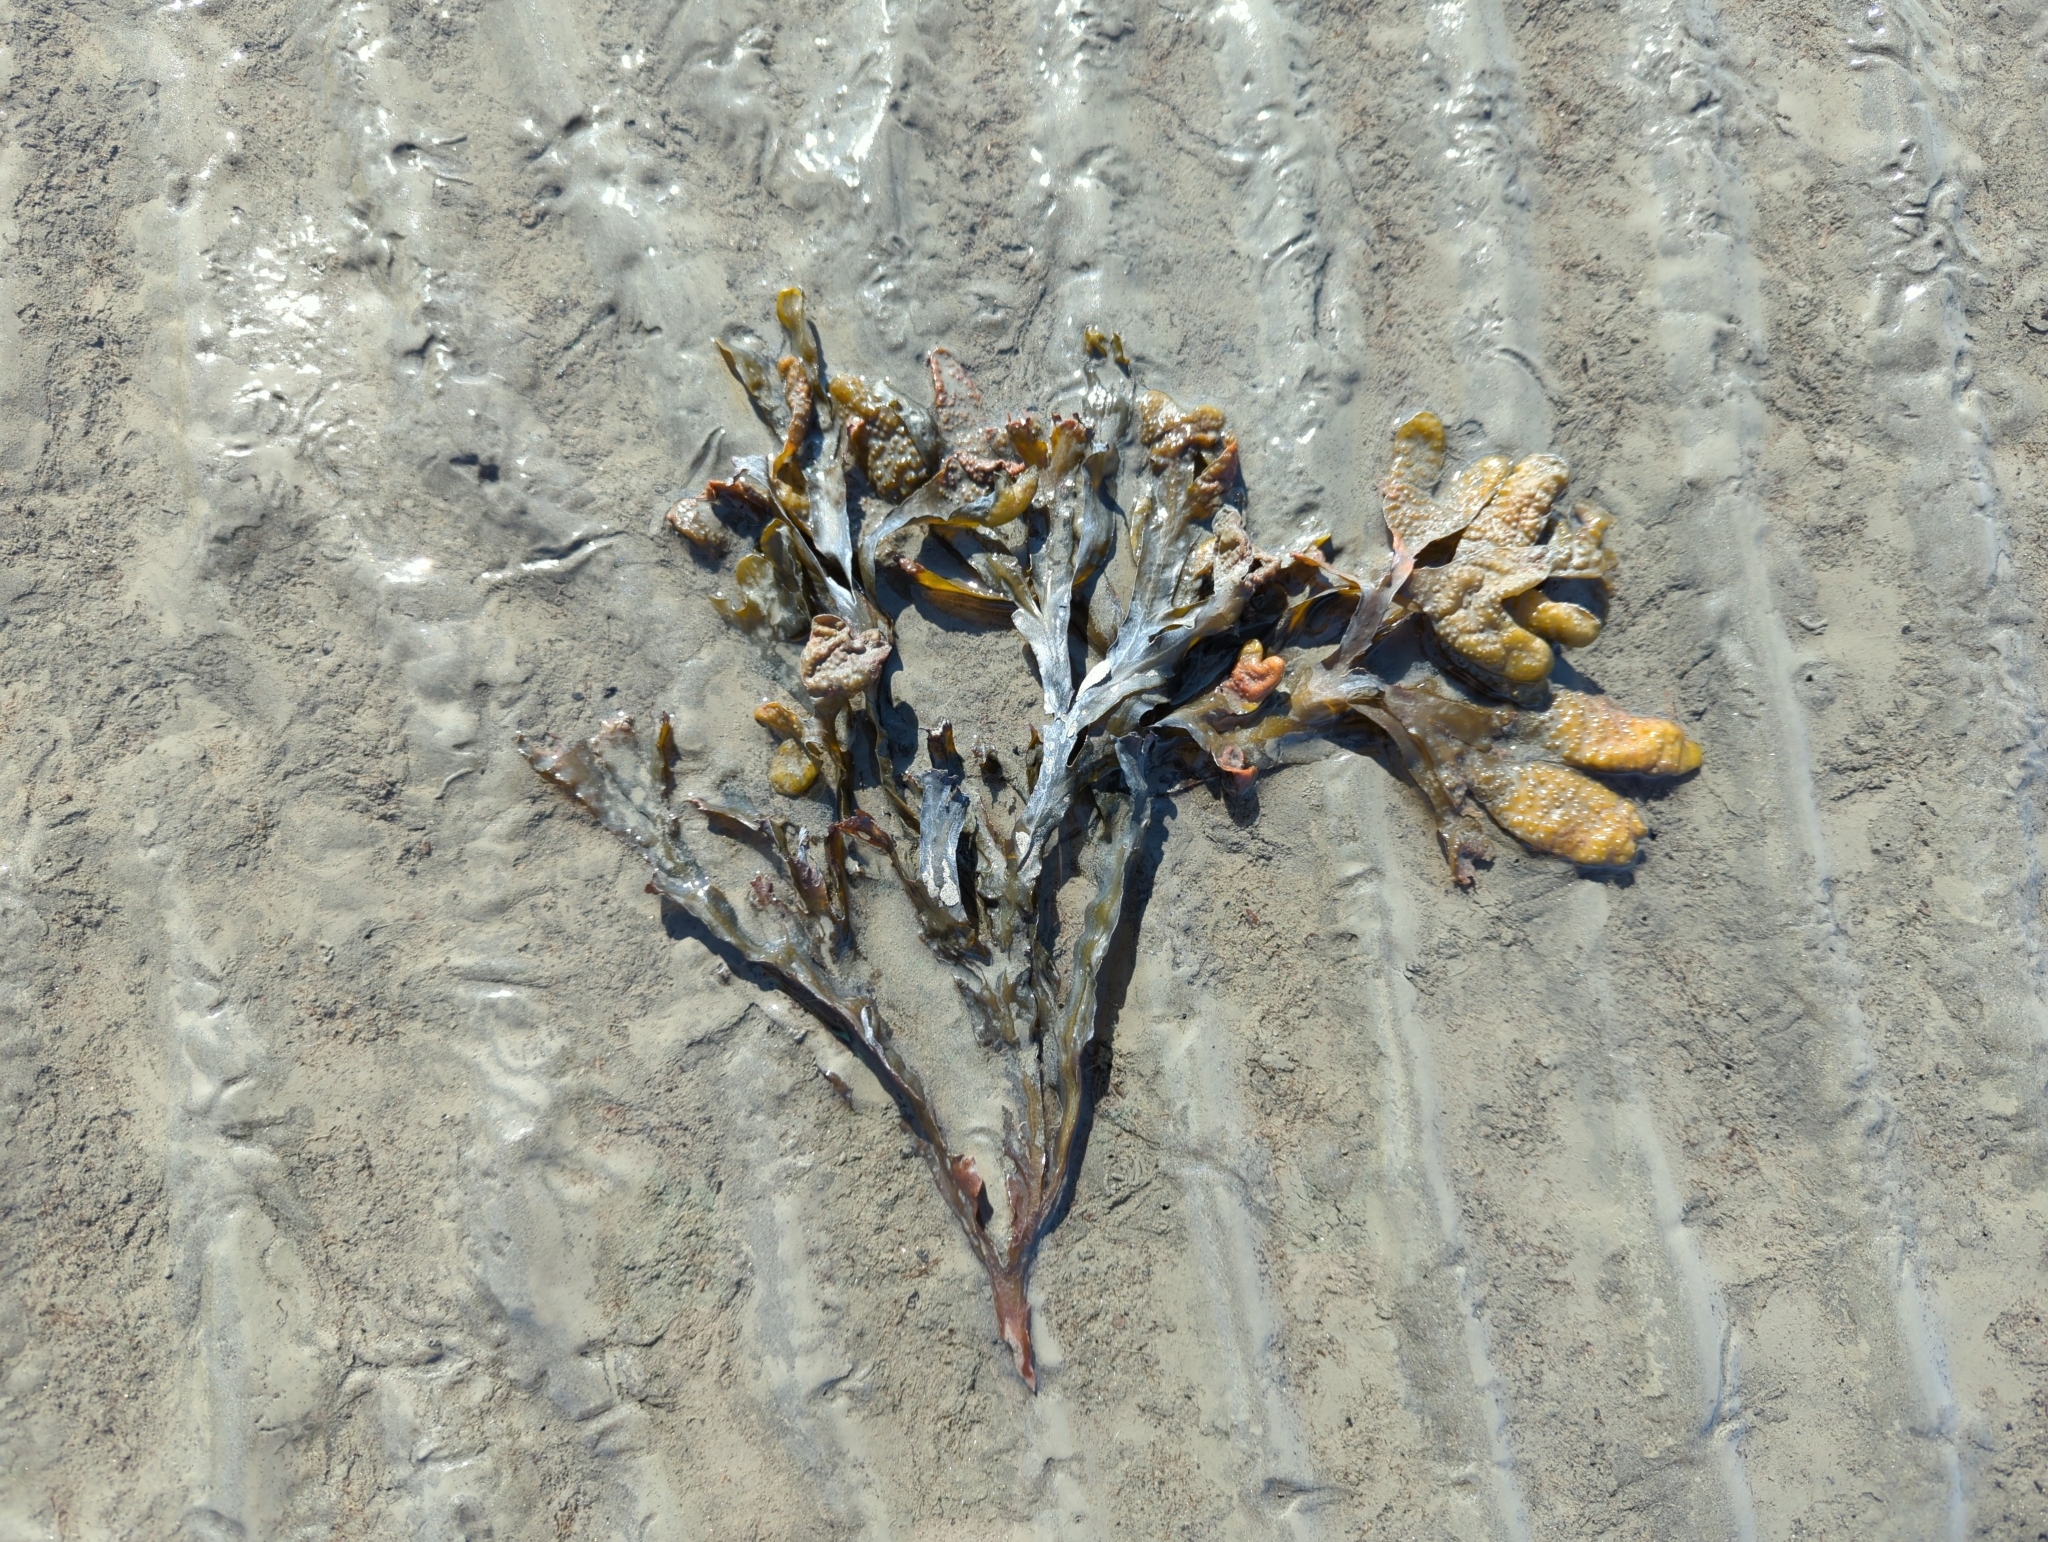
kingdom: Chromista
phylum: Ochrophyta
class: Phaeophyceae
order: Fucales
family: Fucaceae
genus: Fucus
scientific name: Fucus distichus
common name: Rockweed
